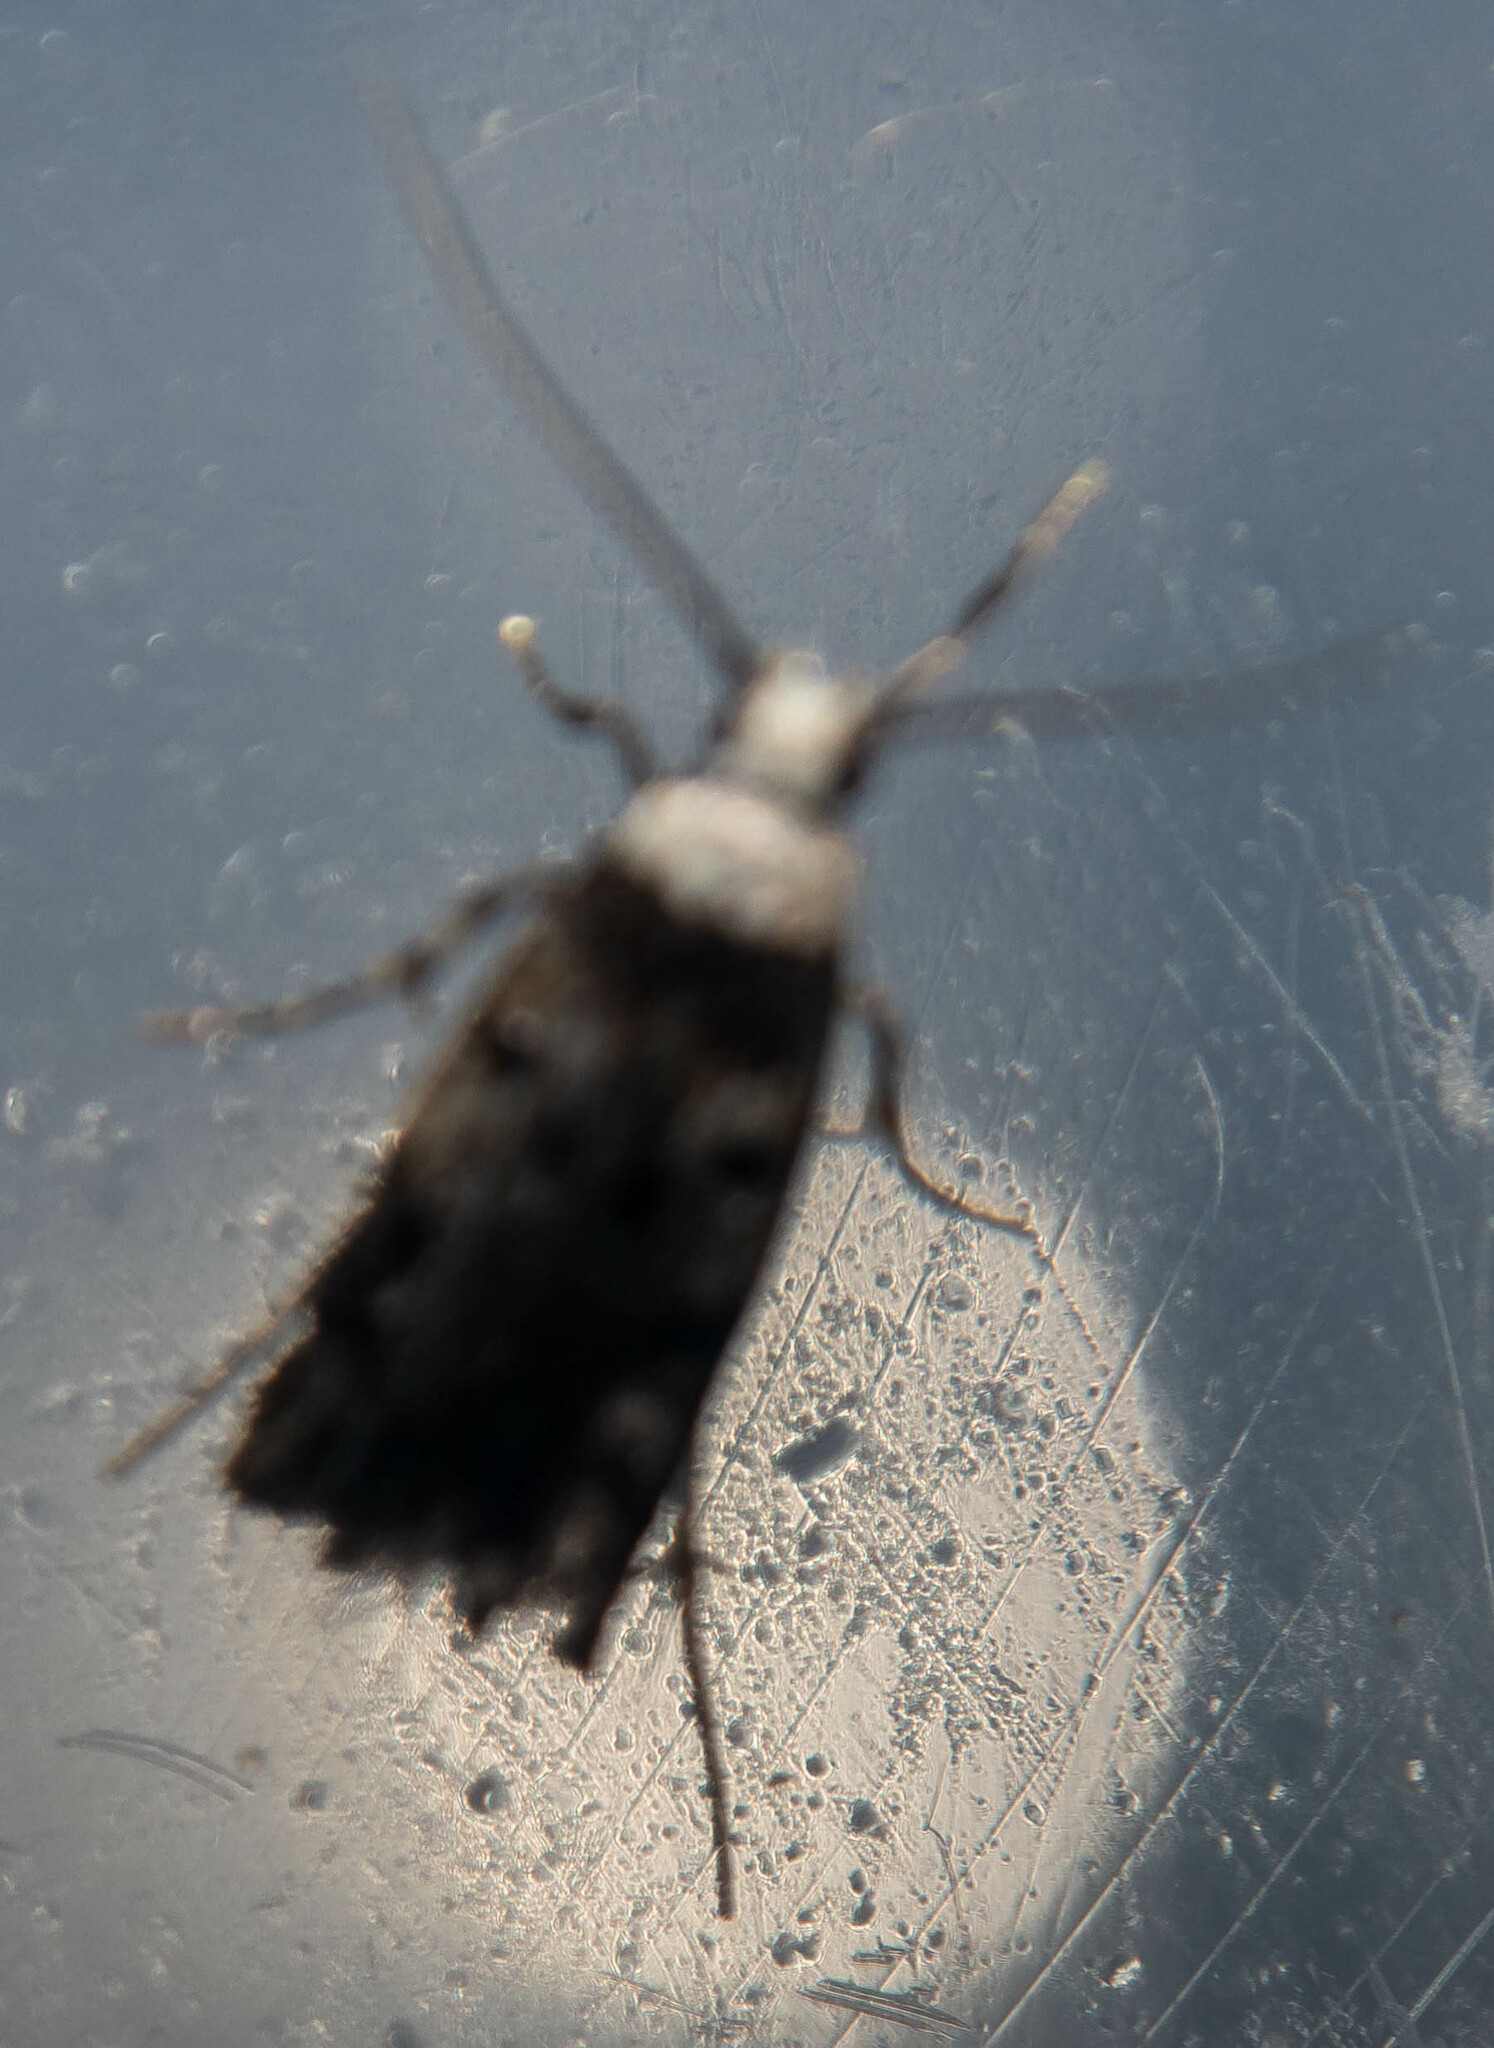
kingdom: Animalia
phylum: Arthropoda
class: Insecta
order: Lepidoptera
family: Oecophoridae
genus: Endrosis
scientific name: Endrosis sarcitrella
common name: White-shouldered house moth
